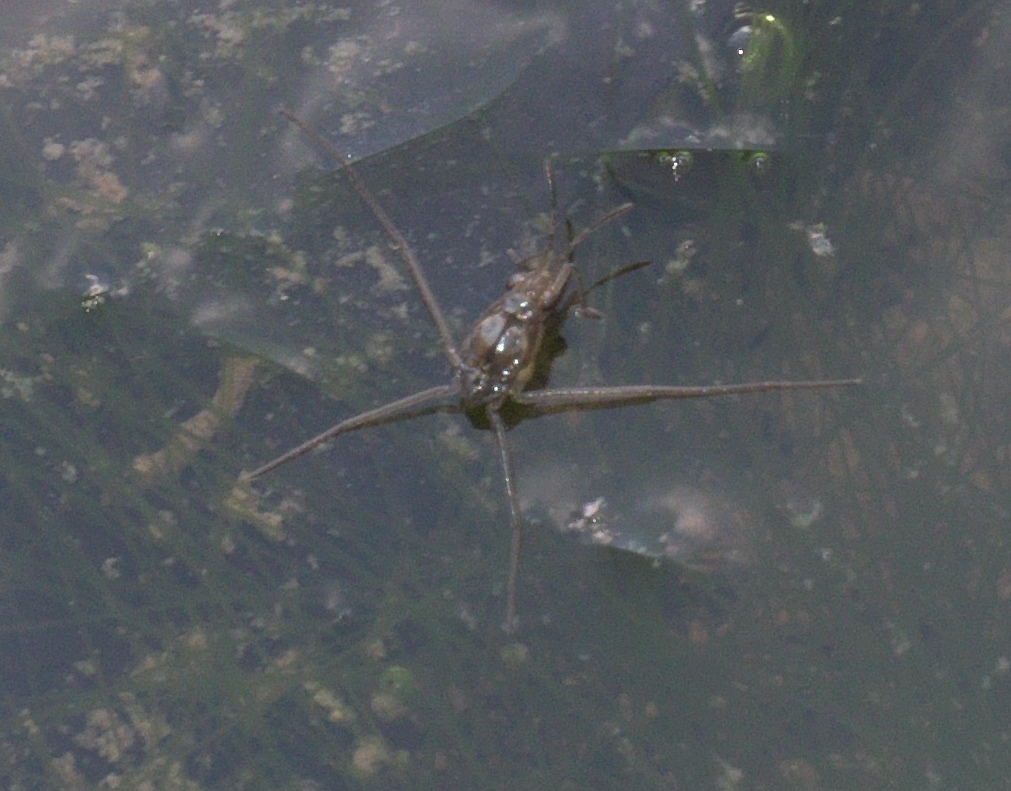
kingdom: Animalia
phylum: Arthropoda
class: Insecta
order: Hemiptera
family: Gerridae
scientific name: Gerridae
